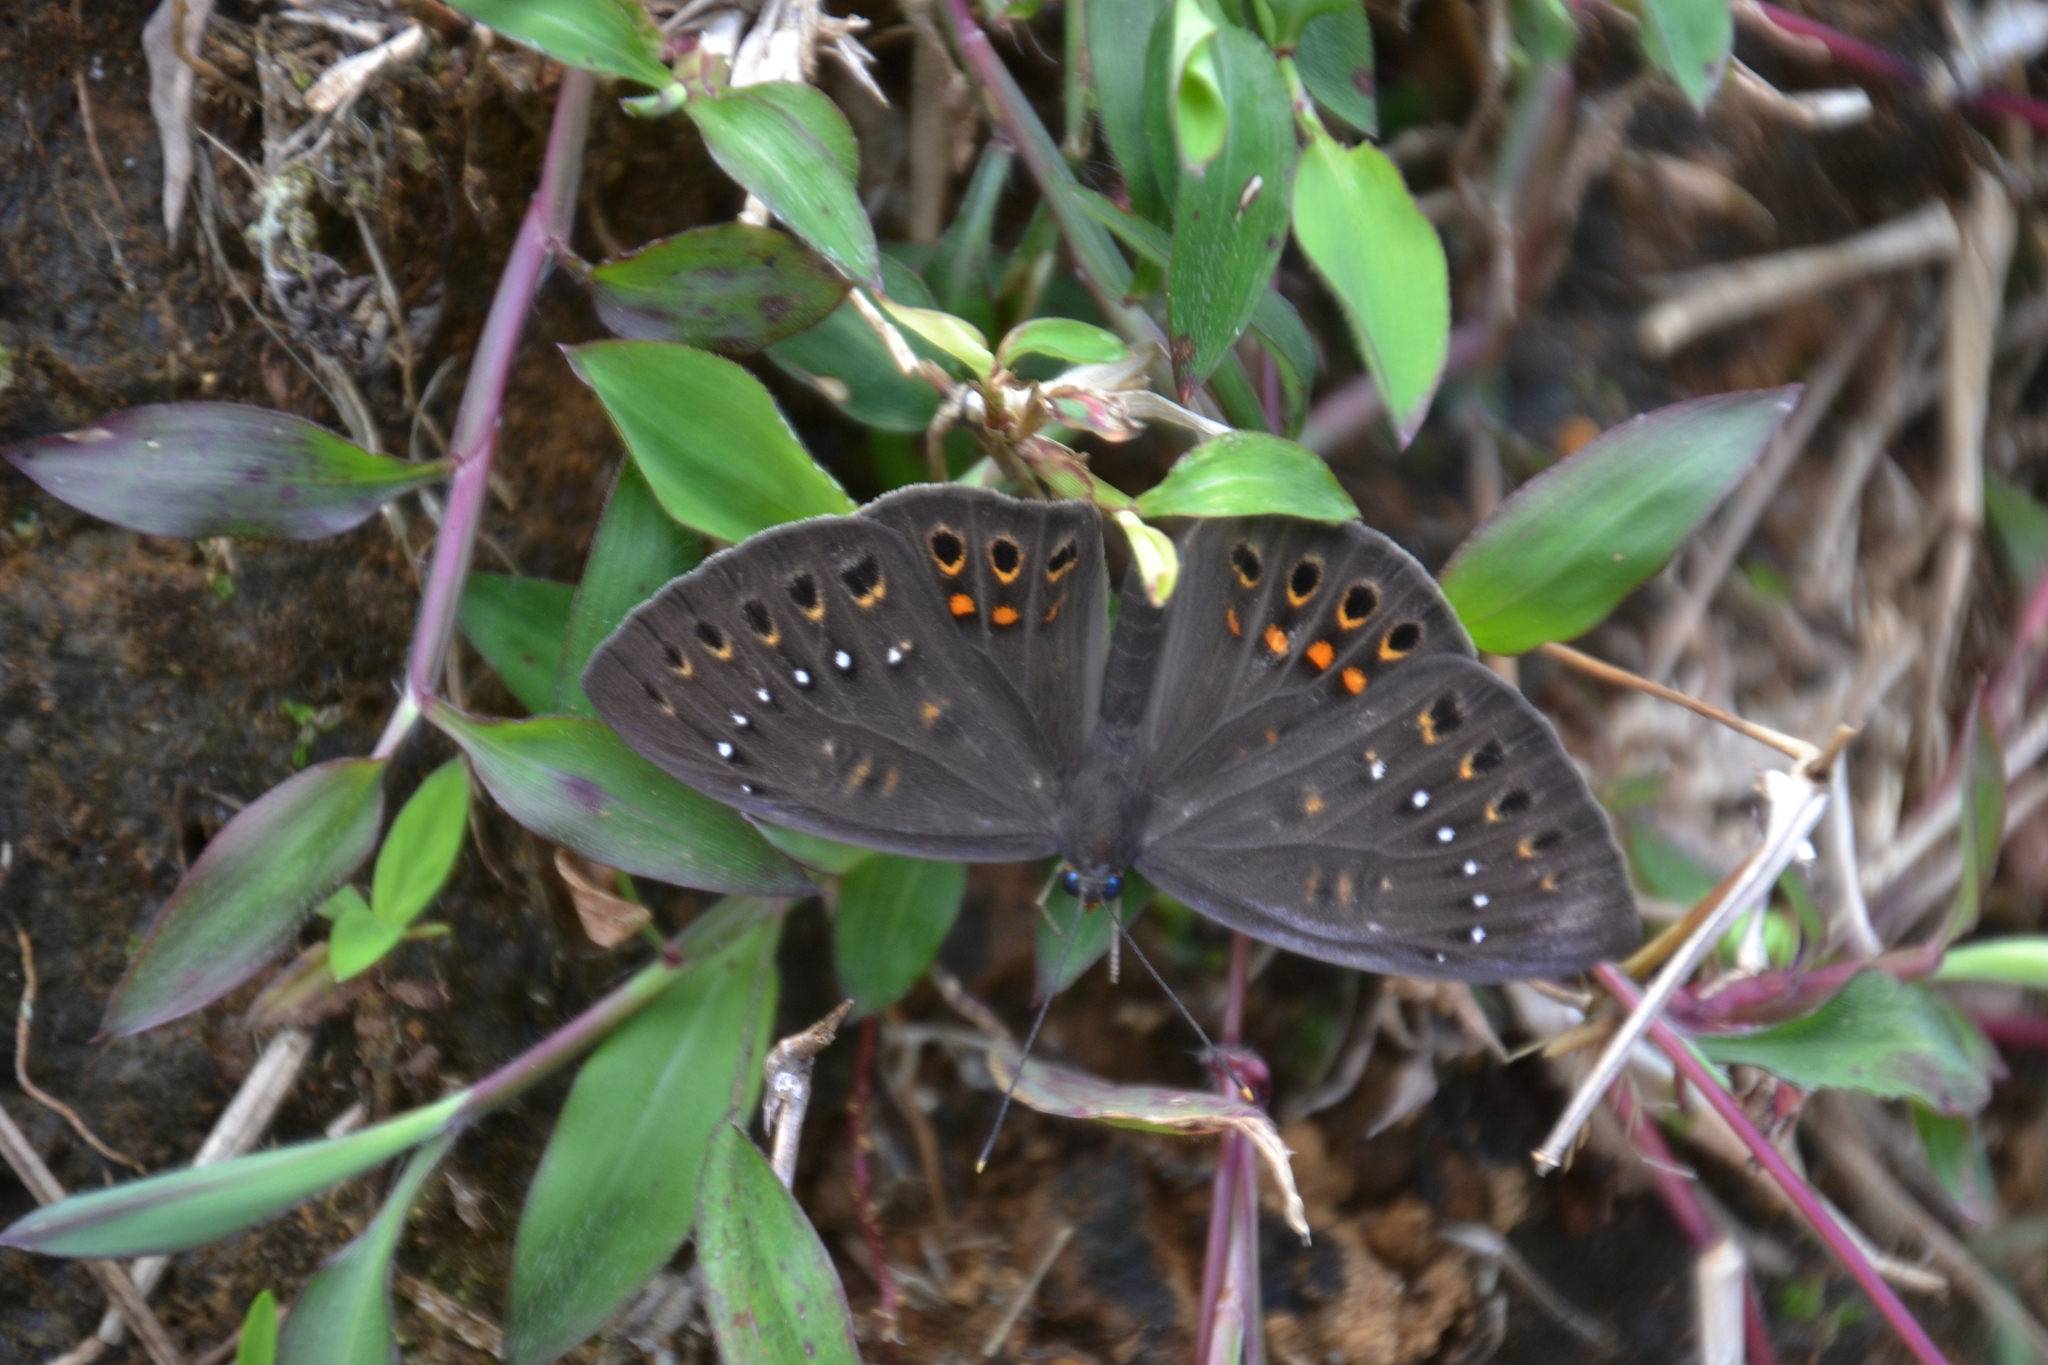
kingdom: Animalia
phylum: Cnidaria
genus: Eurybia
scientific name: Eurybia elvina
